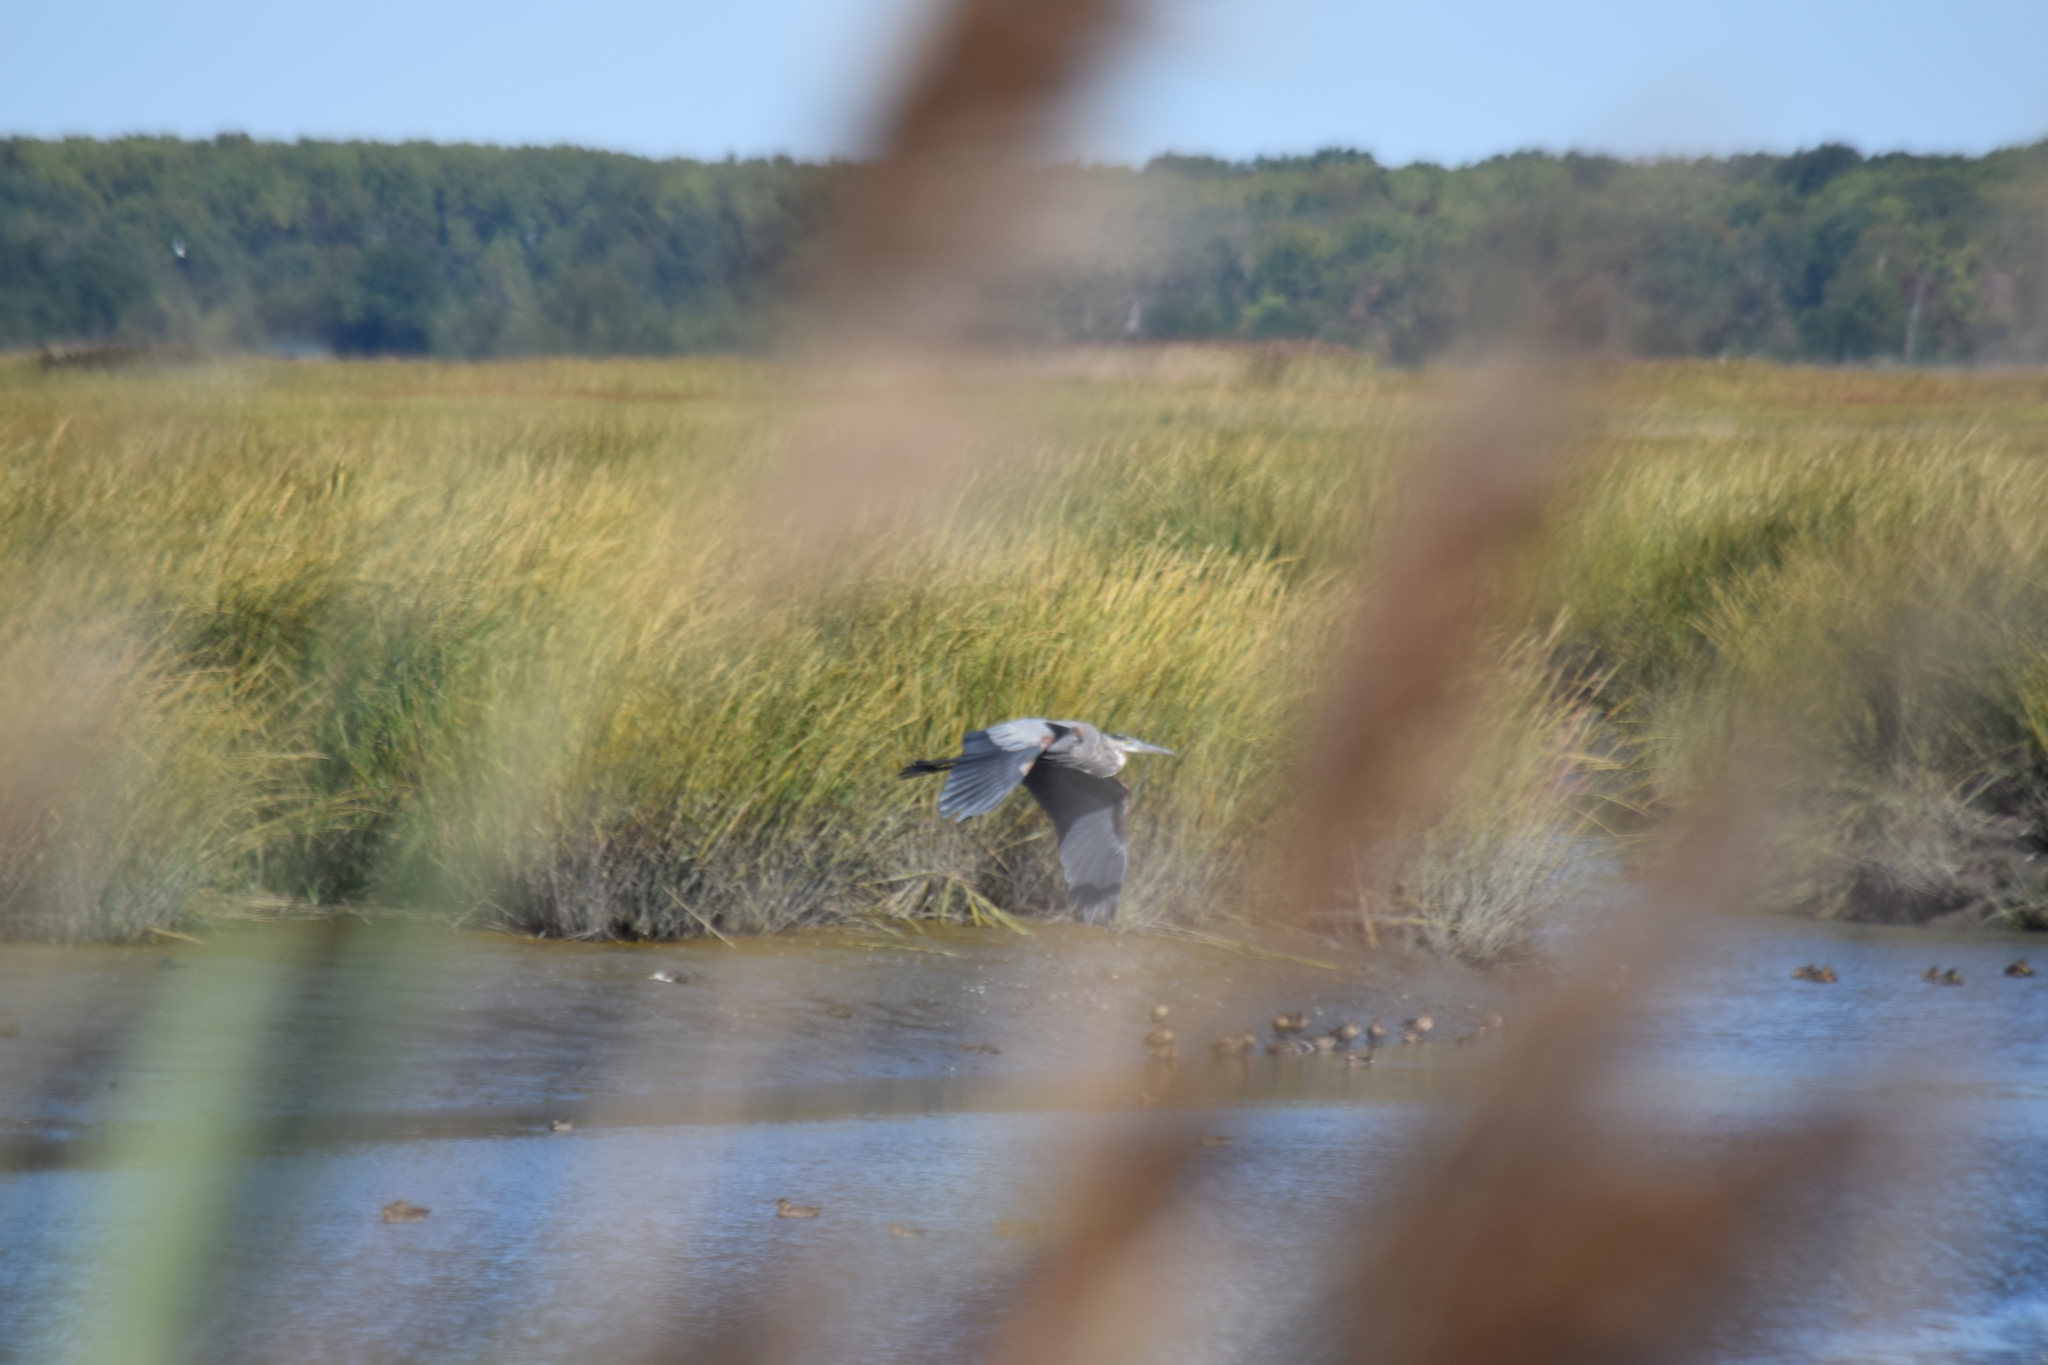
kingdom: Animalia
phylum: Chordata
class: Aves
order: Pelecaniformes
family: Ardeidae
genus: Ardea
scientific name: Ardea herodias
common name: Great blue heron
